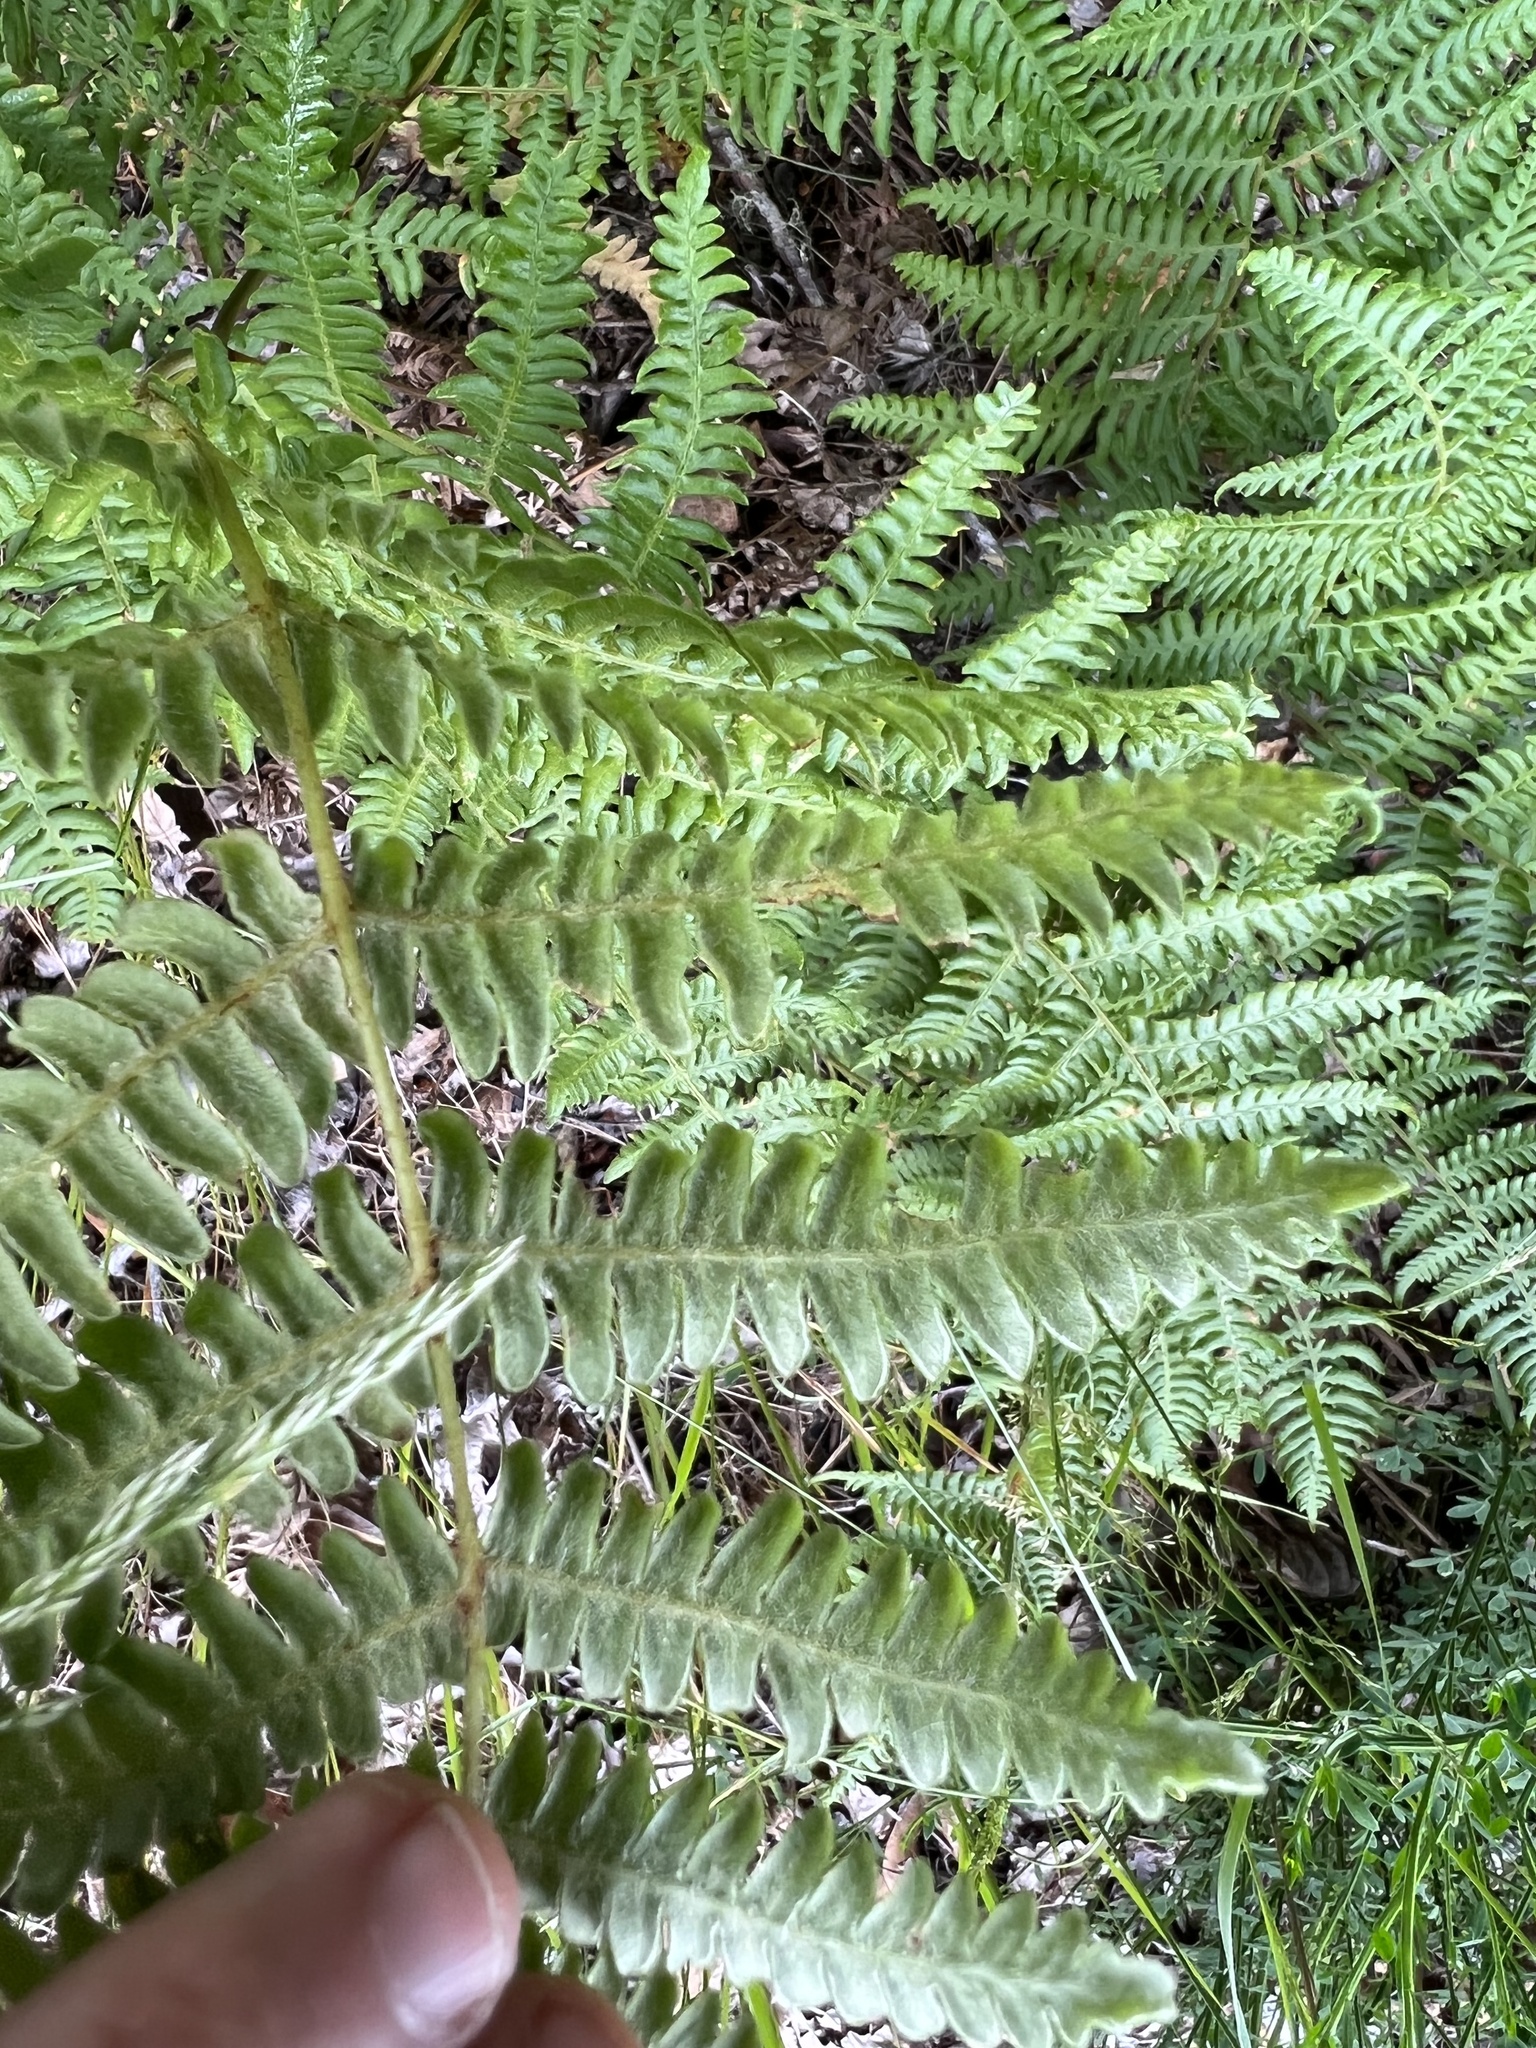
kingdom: Plantae
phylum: Tracheophyta
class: Polypodiopsida
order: Polypodiales
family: Dennstaedtiaceae
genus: Pteridium
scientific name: Pteridium aquilinum
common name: Bracken
